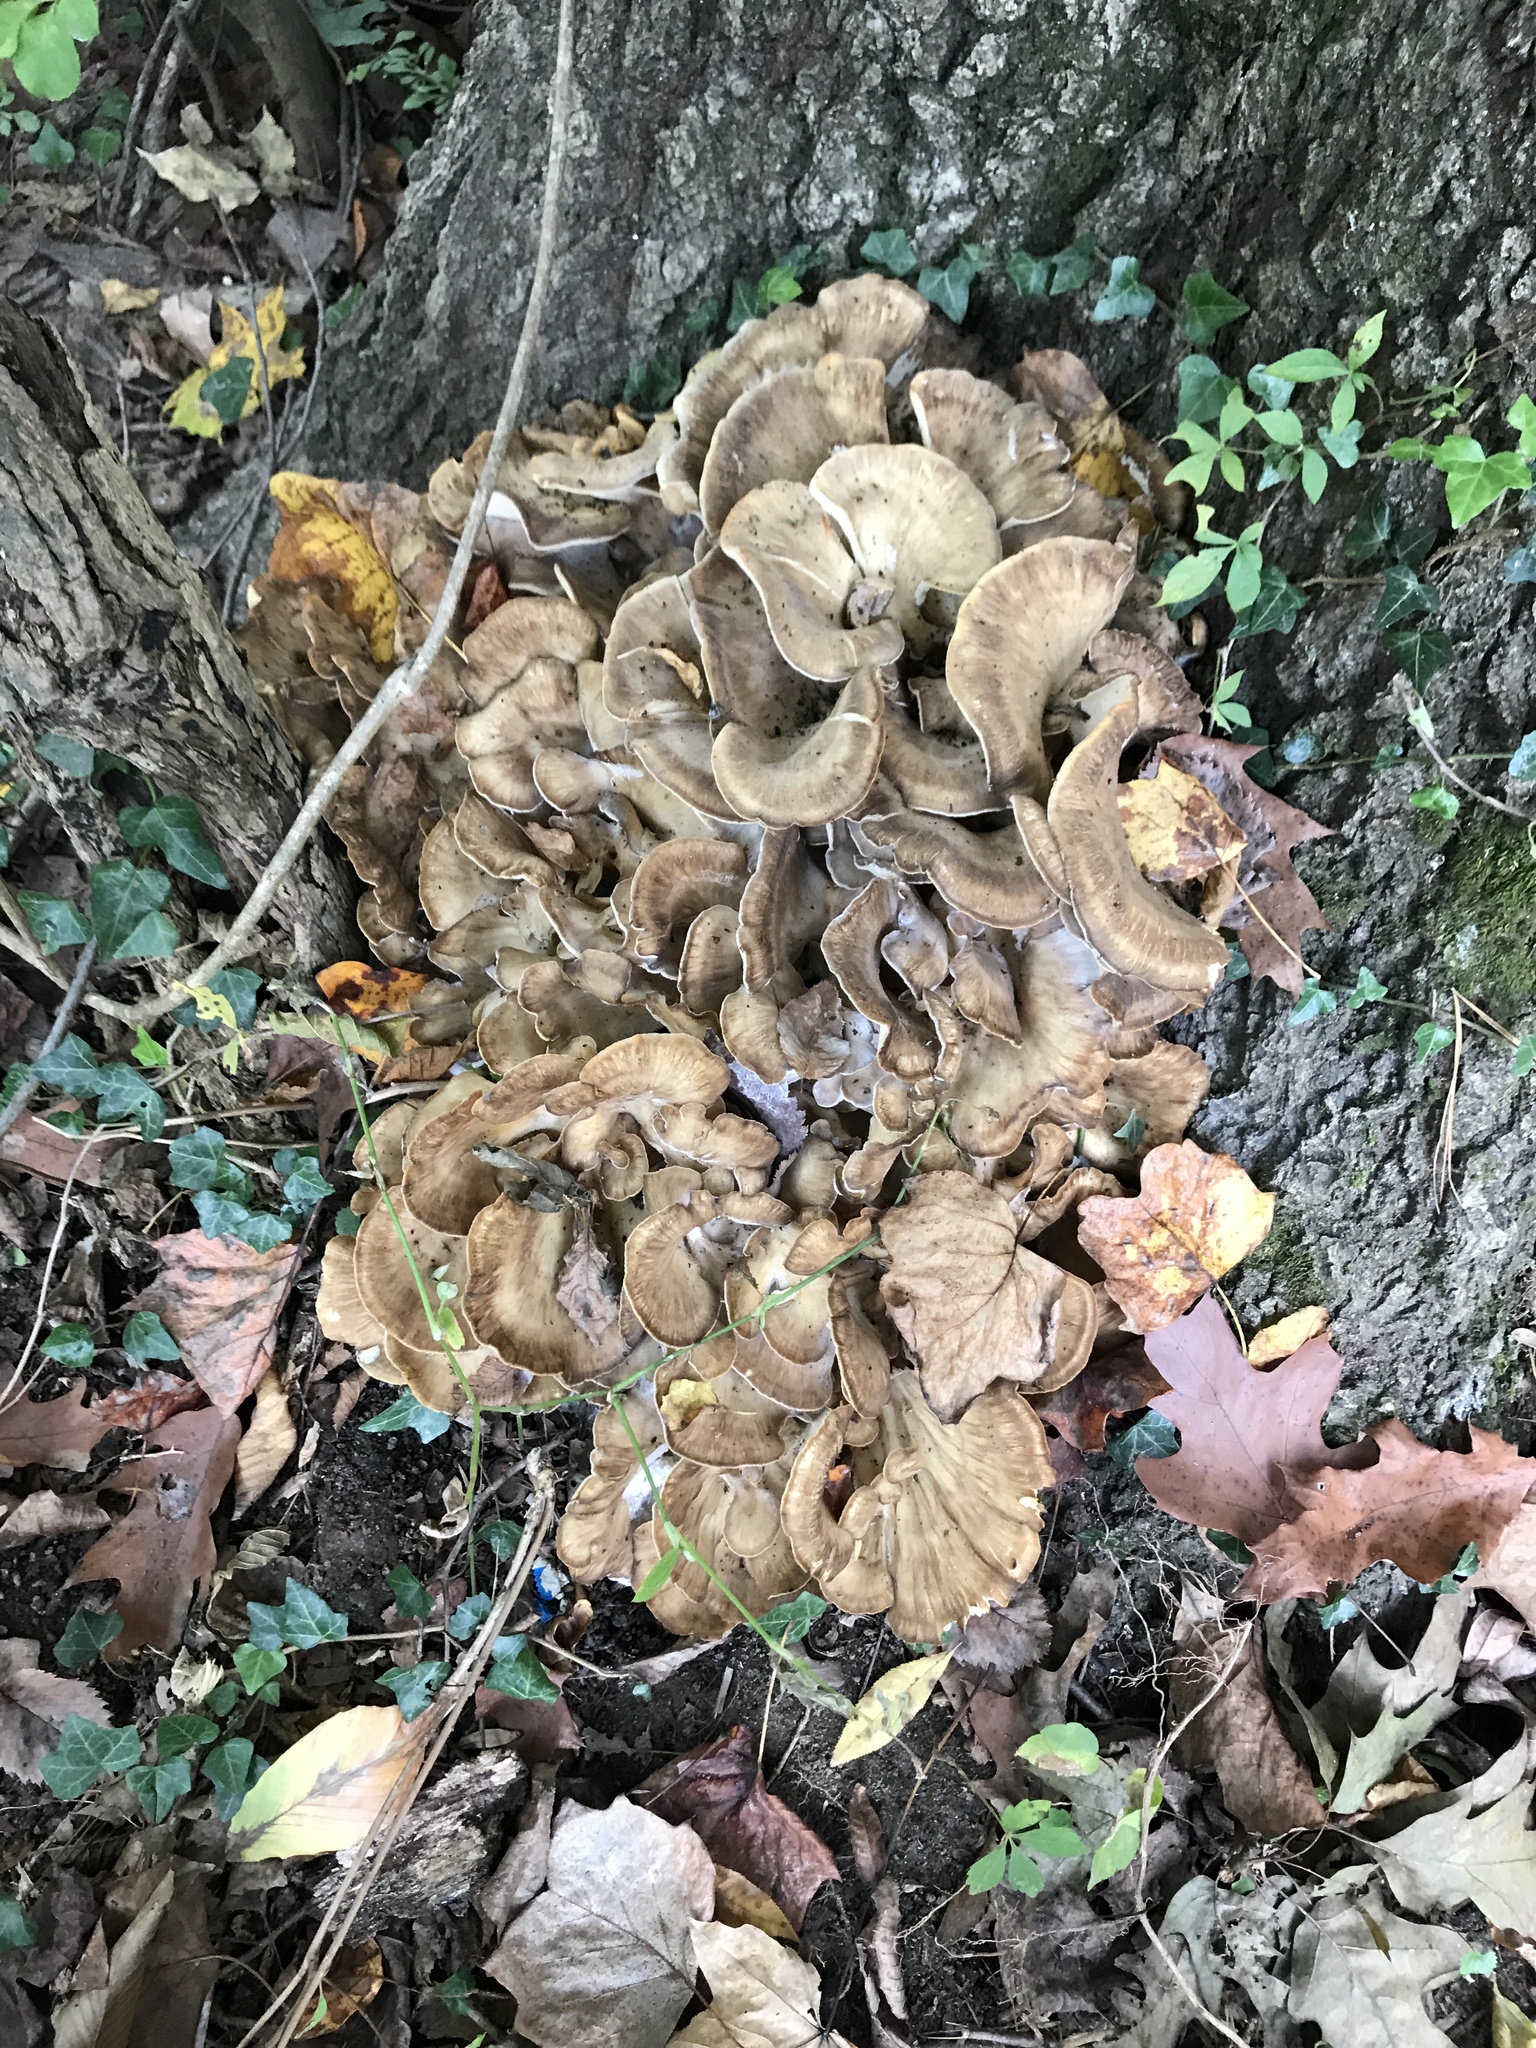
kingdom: Fungi
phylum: Basidiomycota
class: Agaricomycetes
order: Polyporales
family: Grifolaceae
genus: Grifola
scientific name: Grifola frondosa
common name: Hen of the woods
